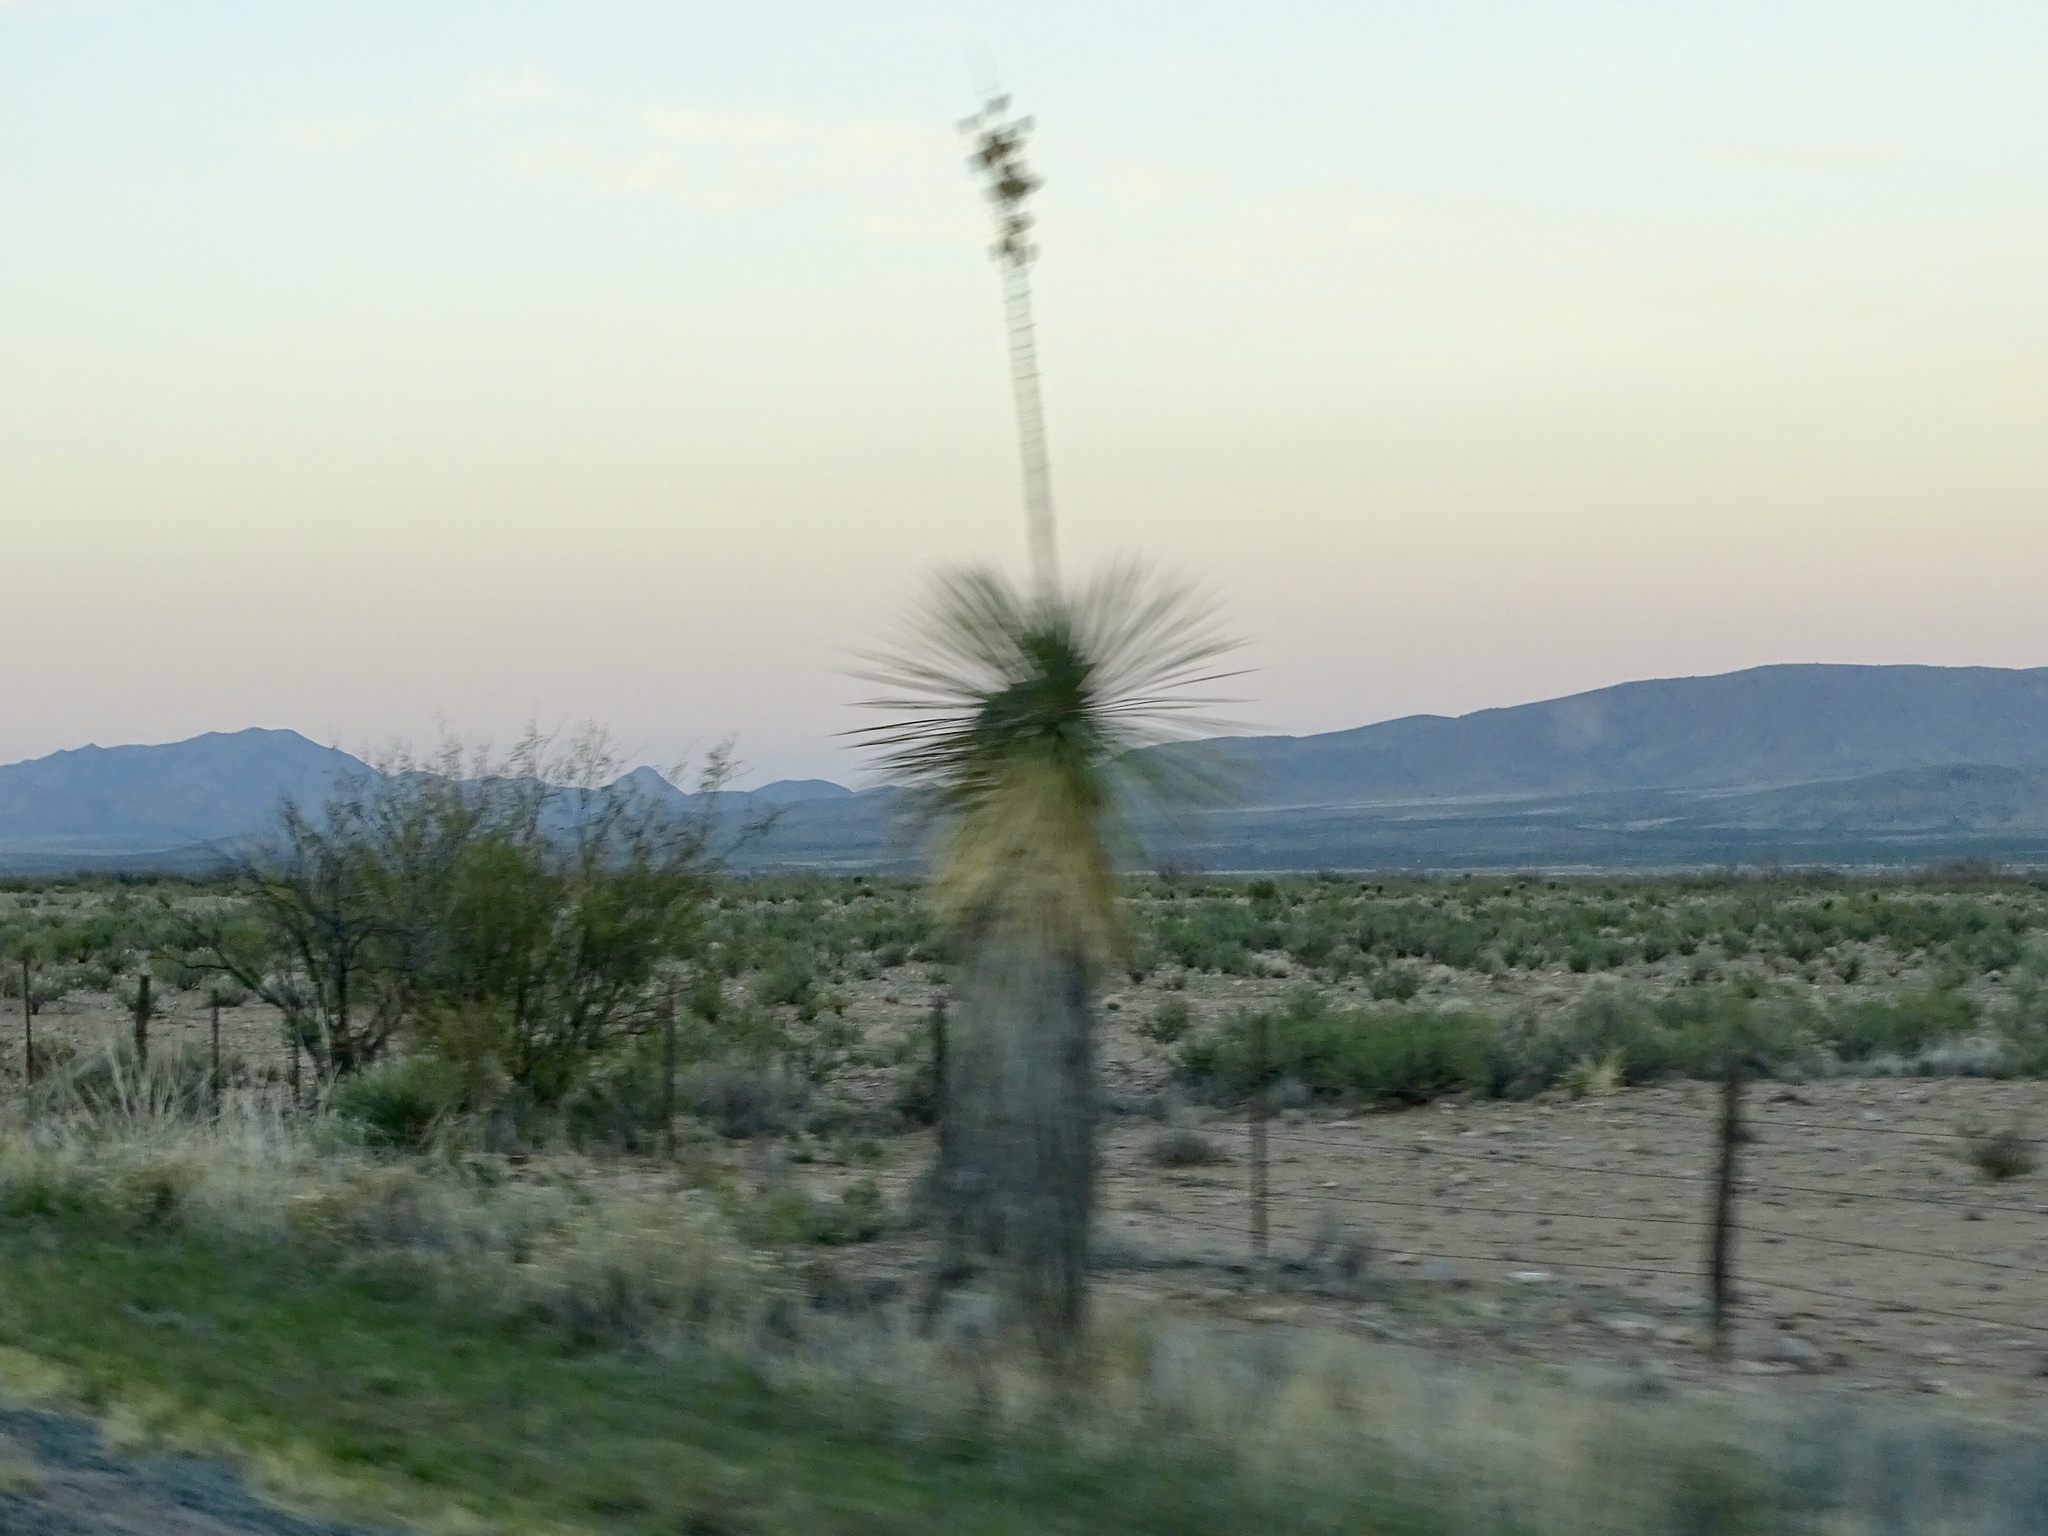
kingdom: Plantae
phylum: Tracheophyta
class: Liliopsida
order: Asparagales
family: Asparagaceae
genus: Yucca
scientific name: Yucca elata
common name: Palmella
